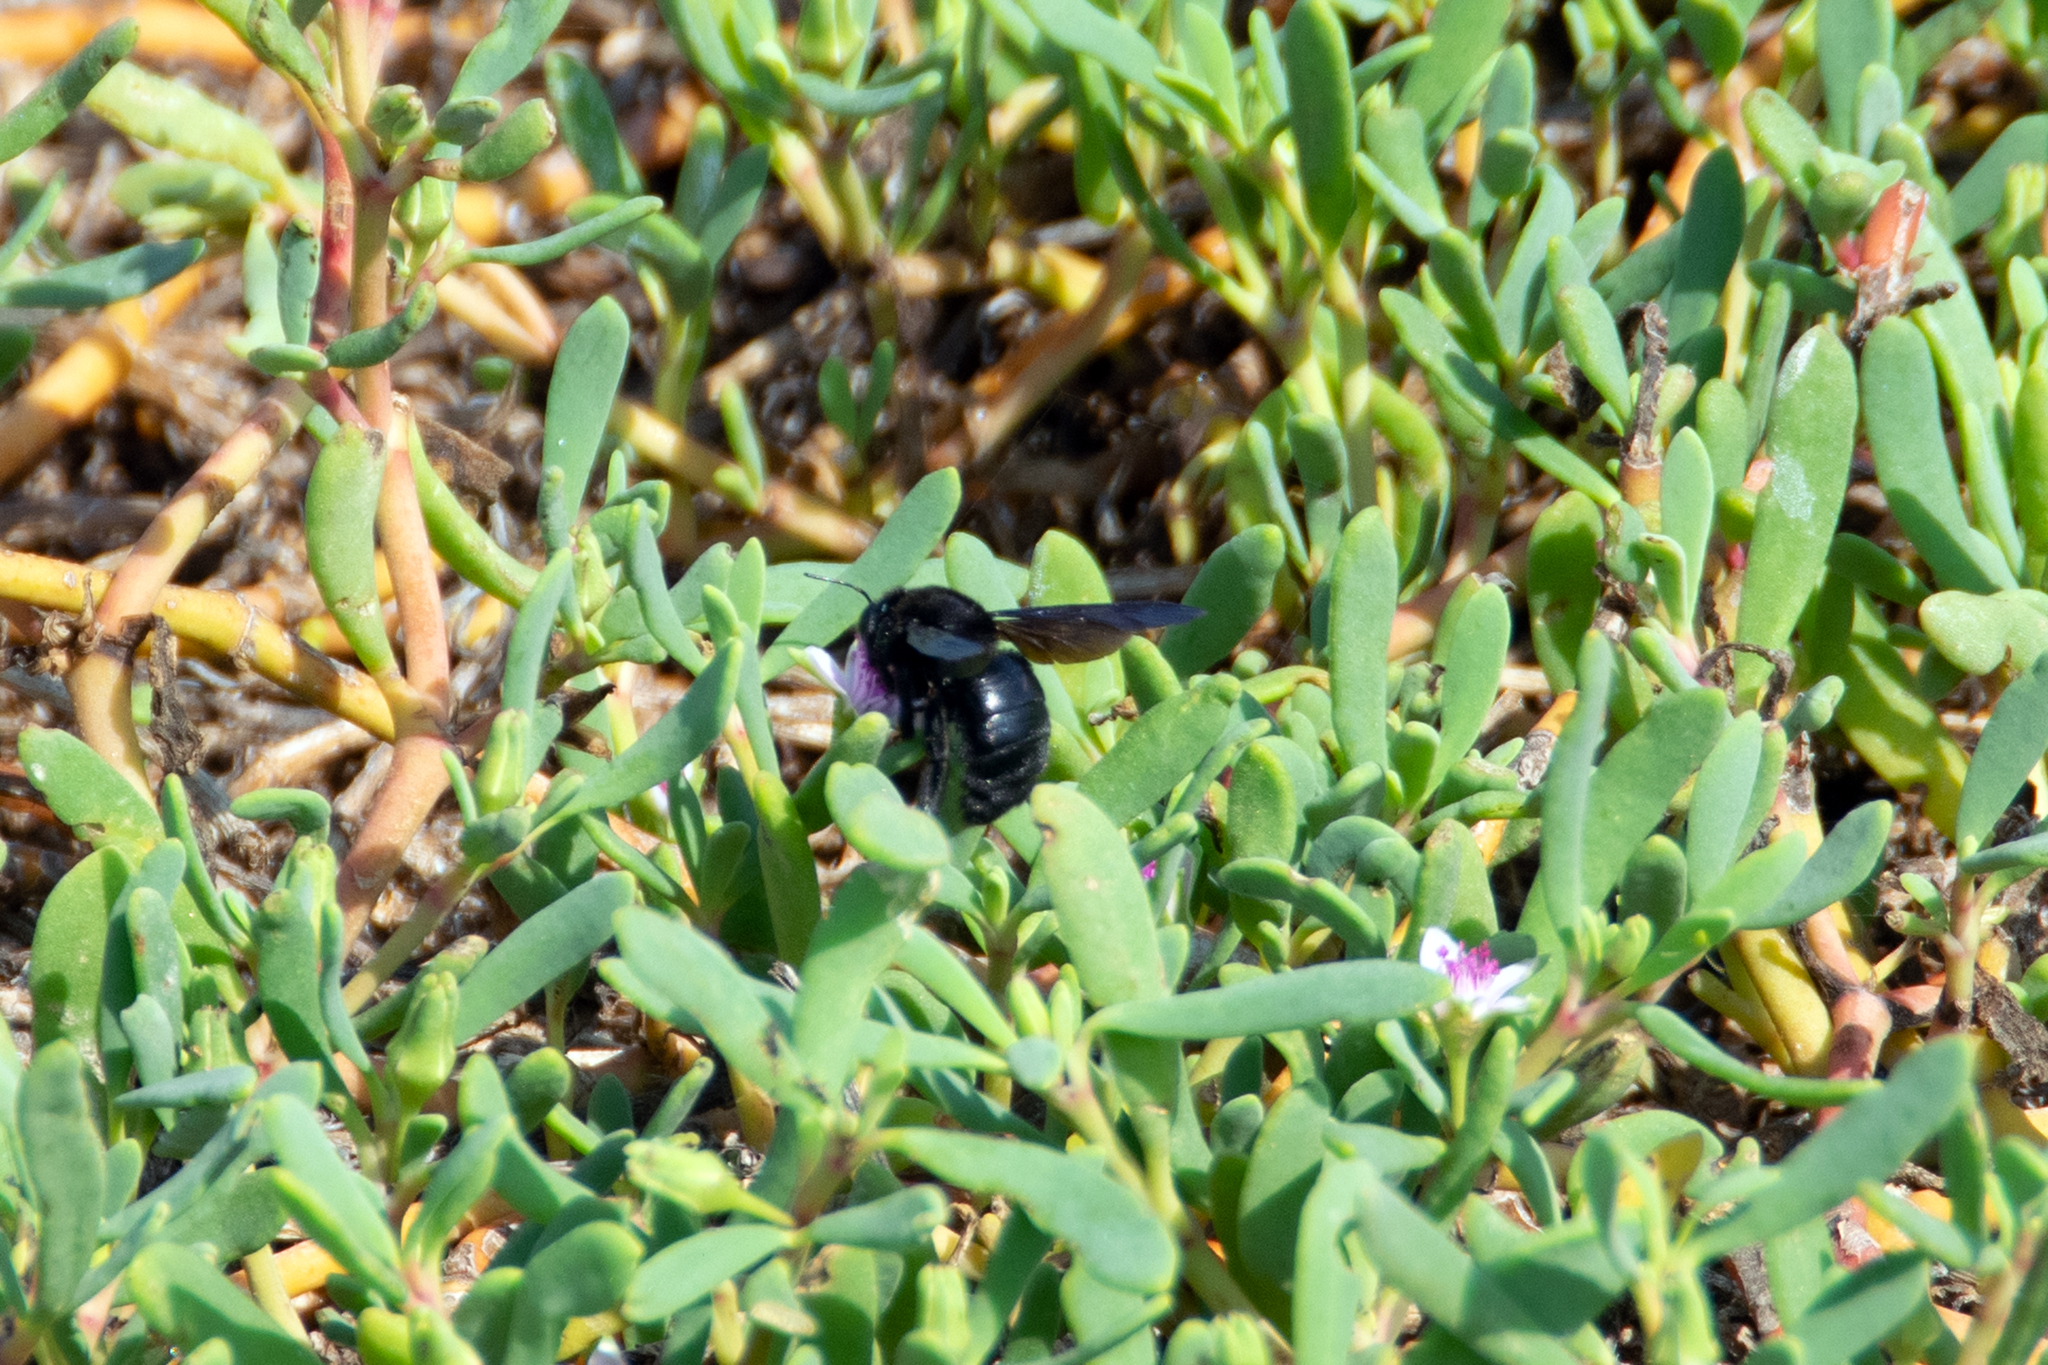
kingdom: Animalia
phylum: Arthropoda
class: Insecta
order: Hymenoptera
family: Apidae
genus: Xylocopa
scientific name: Xylocopa darwini
